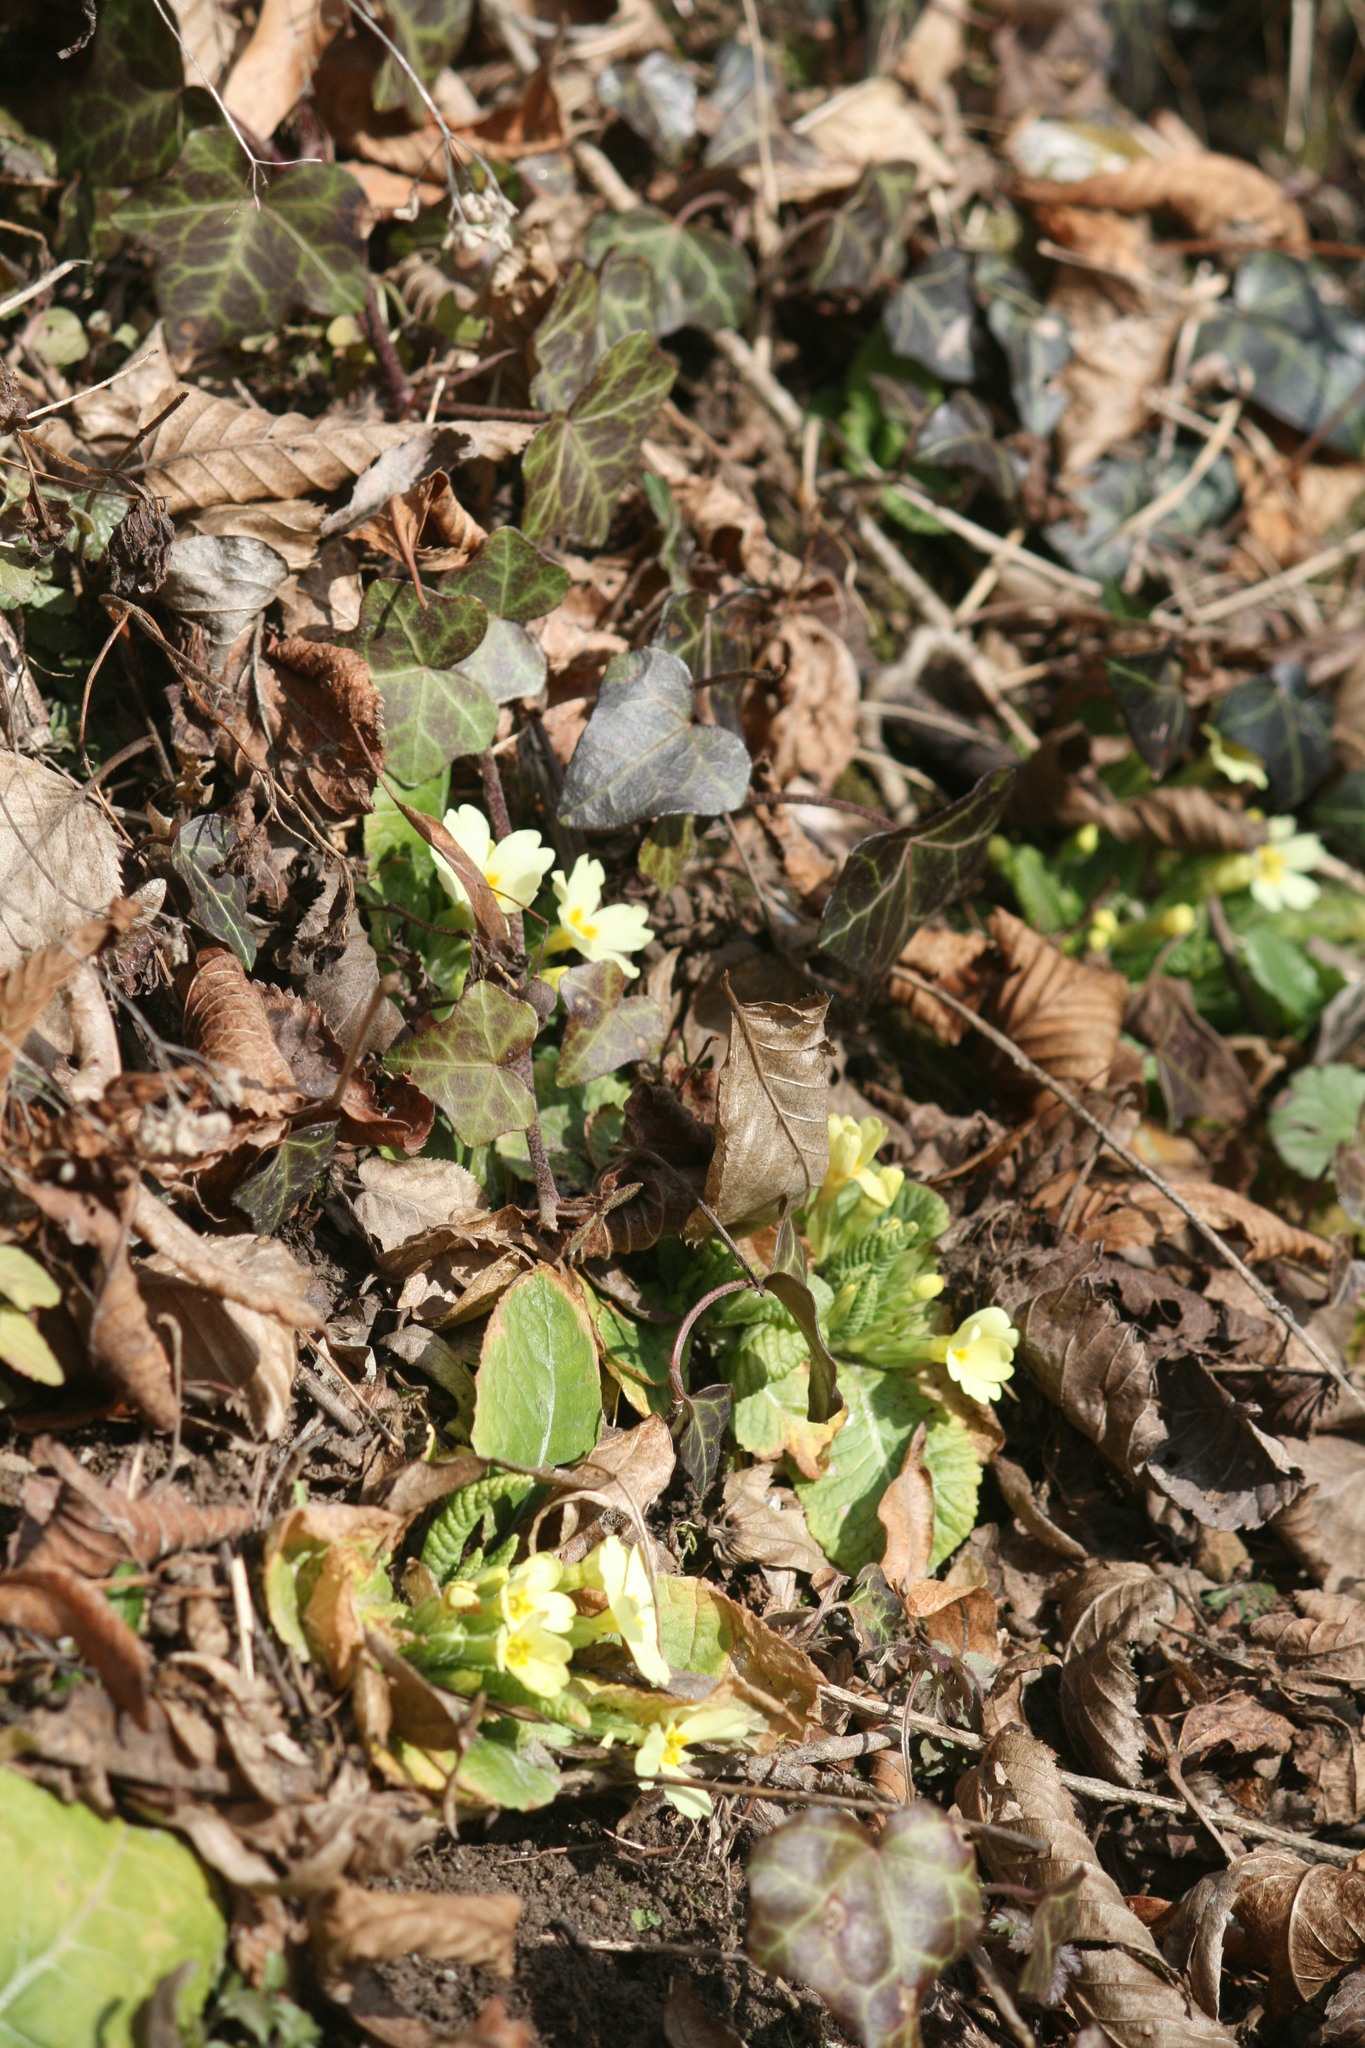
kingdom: Plantae
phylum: Tracheophyta
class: Magnoliopsida
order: Ericales
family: Primulaceae
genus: Primula
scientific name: Primula vulgaris
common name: Primrose
